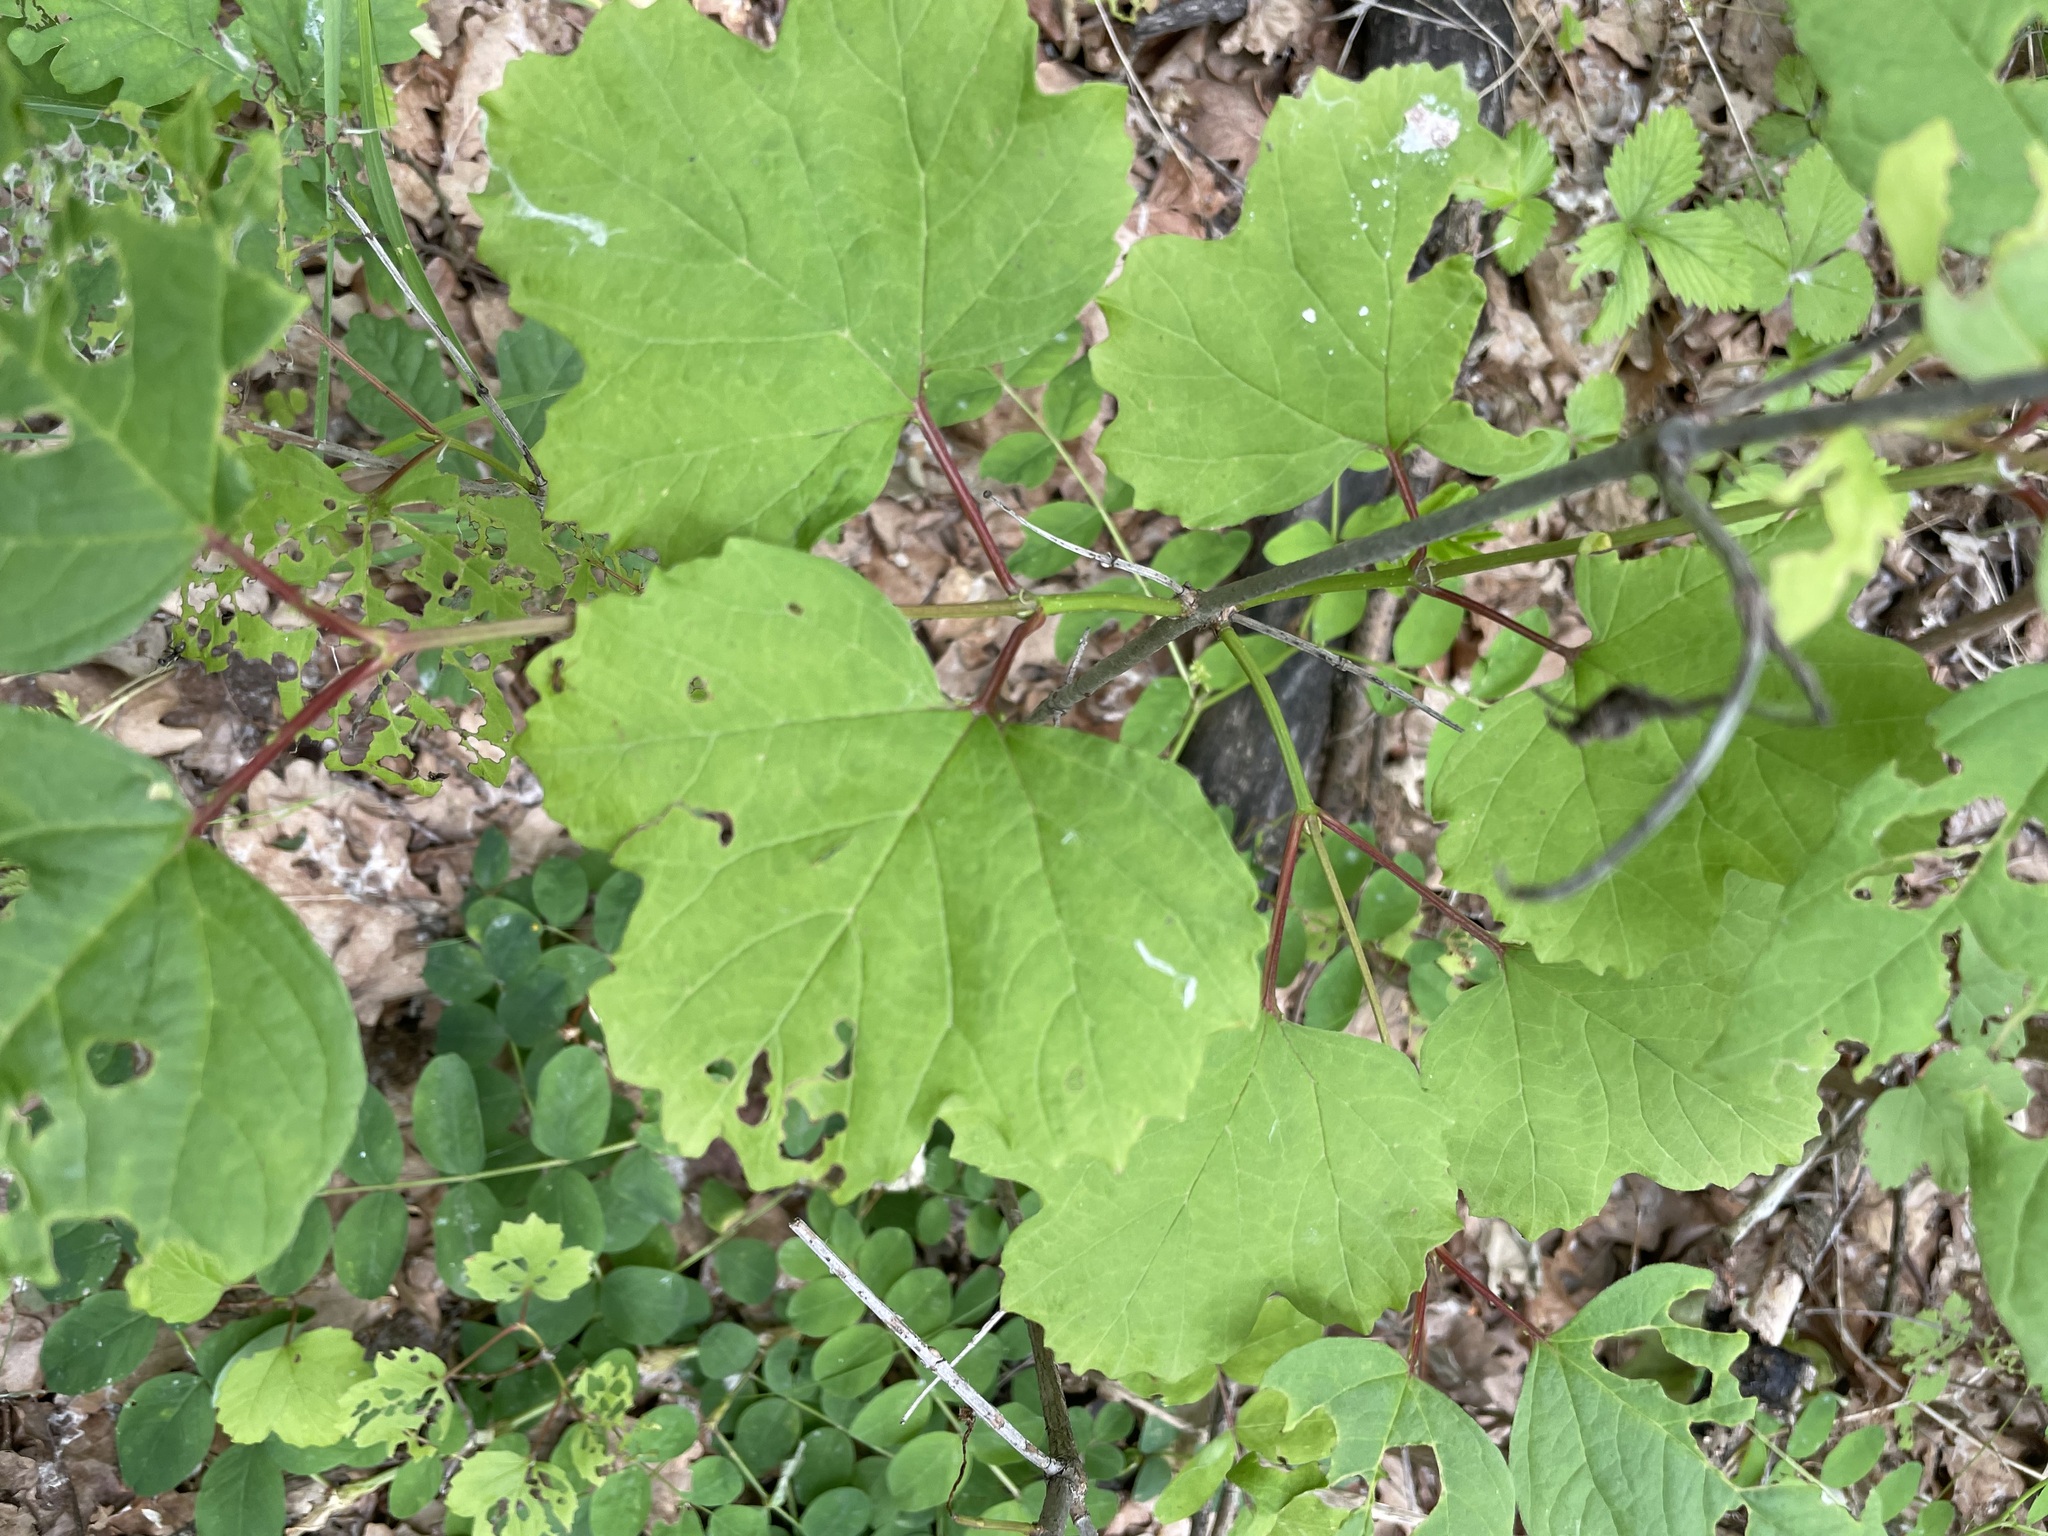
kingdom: Plantae
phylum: Tracheophyta
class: Magnoliopsida
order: Dipsacales
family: Viburnaceae
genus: Viburnum
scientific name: Viburnum opulus
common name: Guelder-rose
